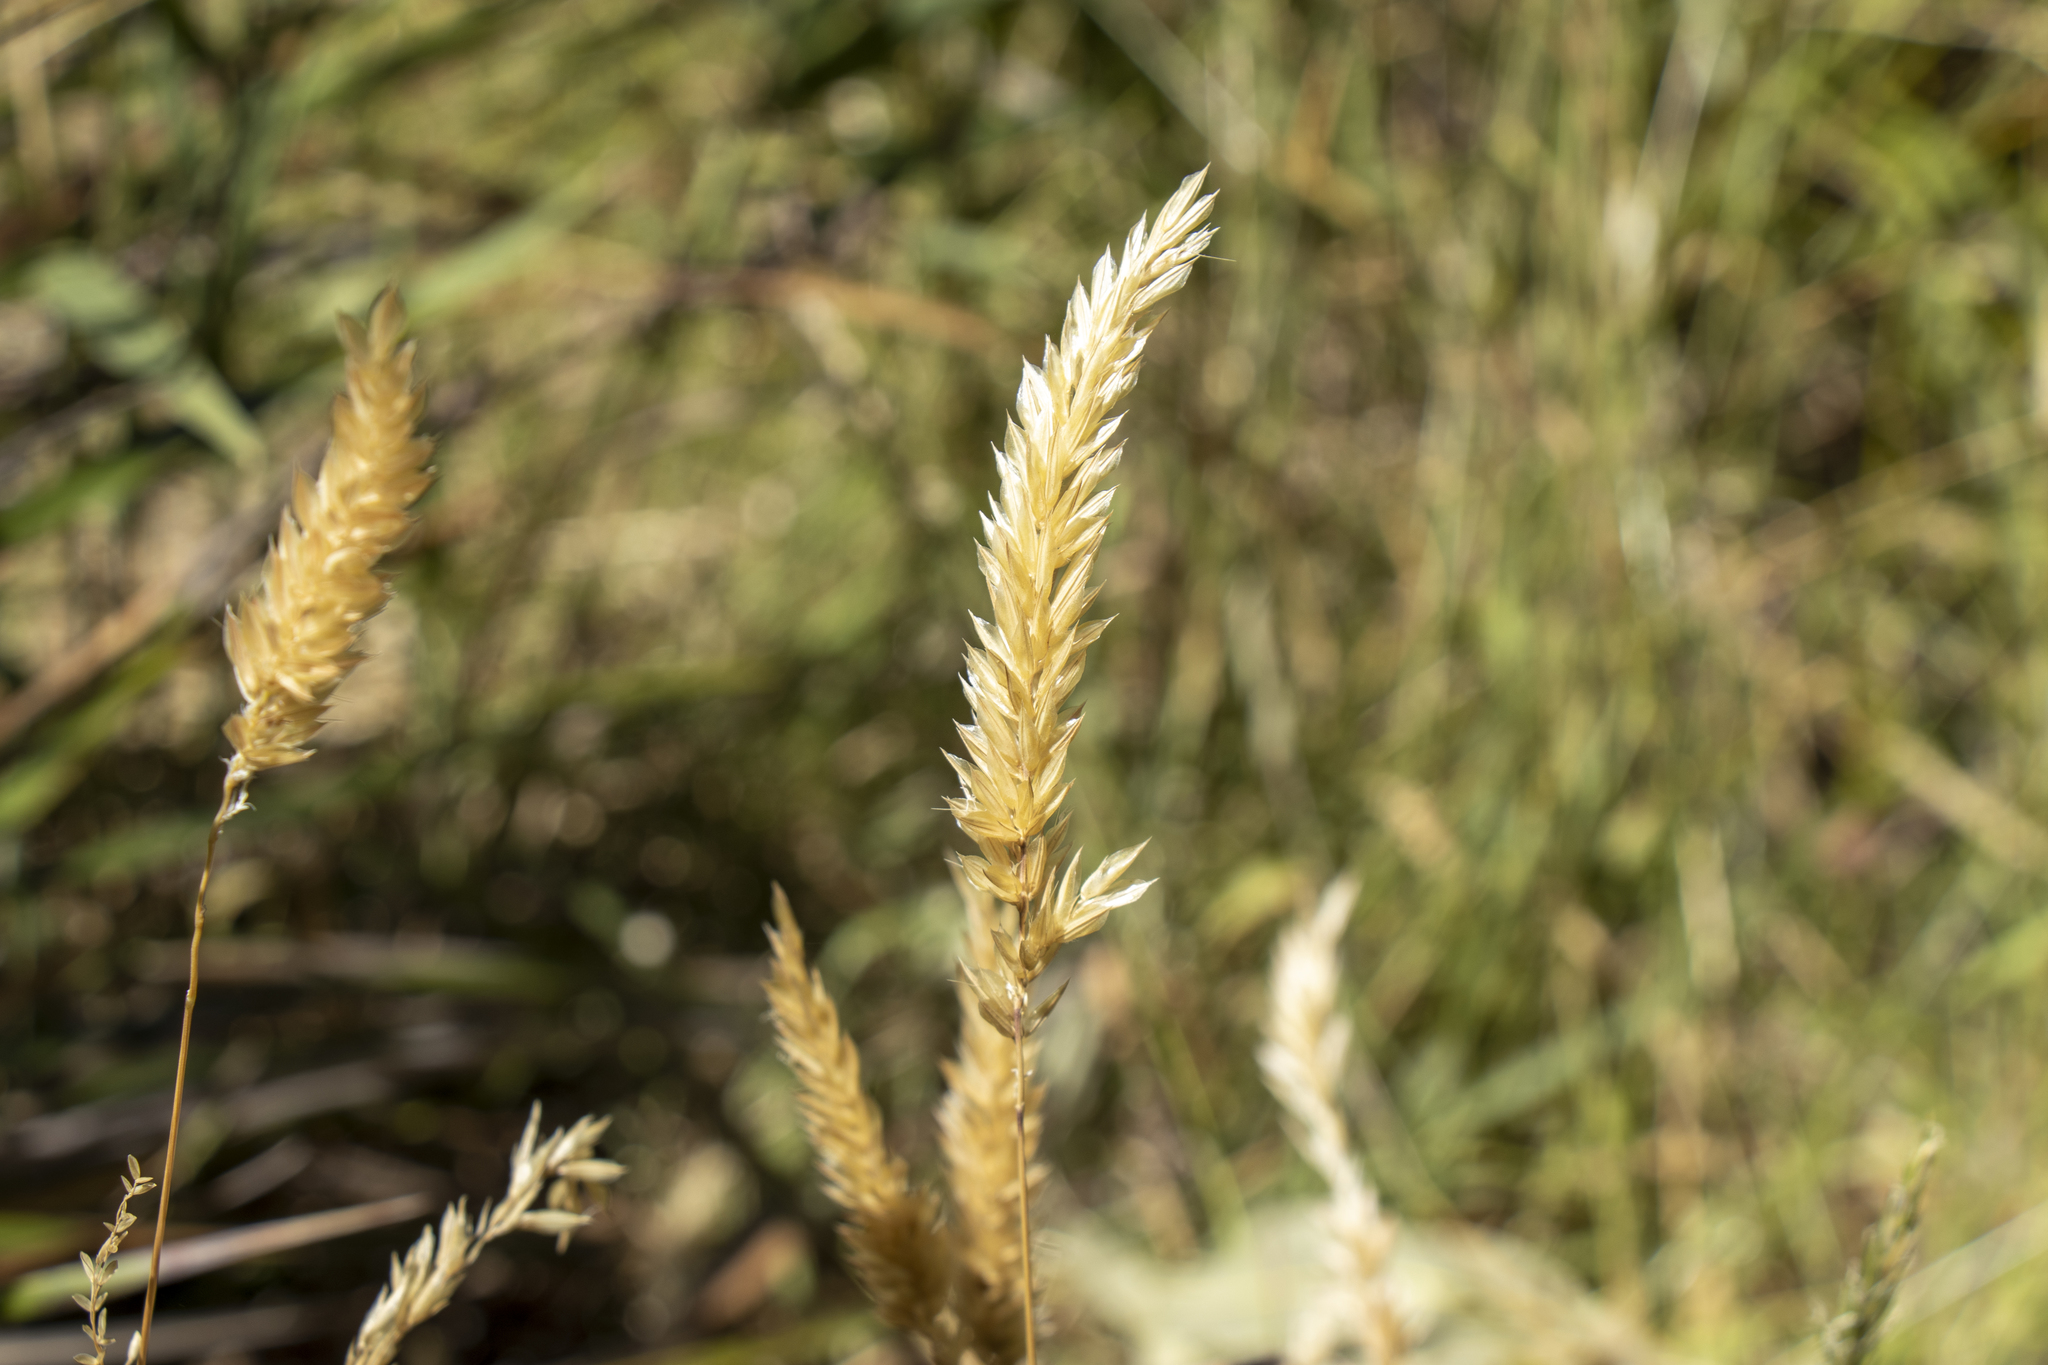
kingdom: Plantae
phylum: Tracheophyta
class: Liliopsida
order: Poales
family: Poaceae
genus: Anthoxanthum
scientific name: Anthoxanthum odoratum
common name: Sweet vernalgrass
